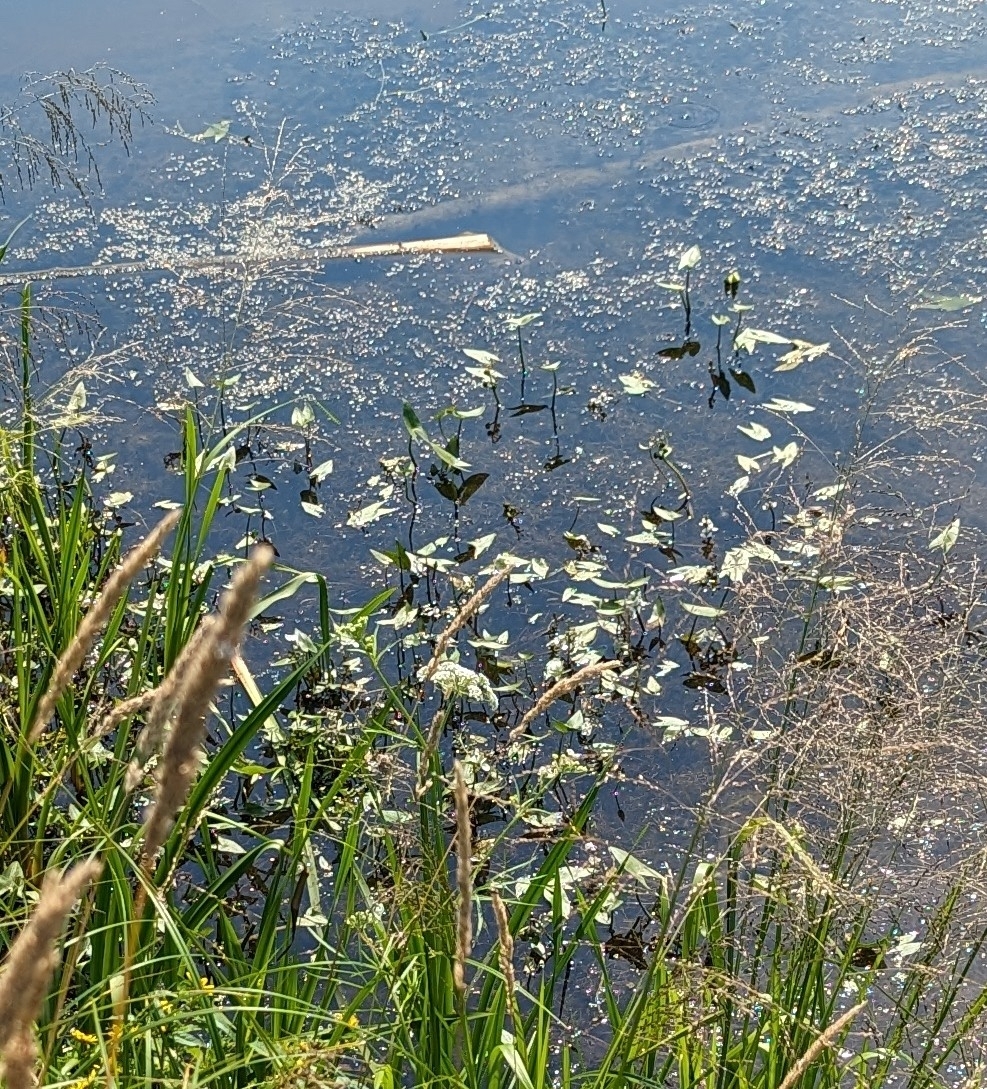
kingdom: Plantae
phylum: Tracheophyta
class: Liliopsida
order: Alismatales
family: Alismataceae
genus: Sagittaria
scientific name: Sagittaria cuneata
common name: Northern arrowhead
